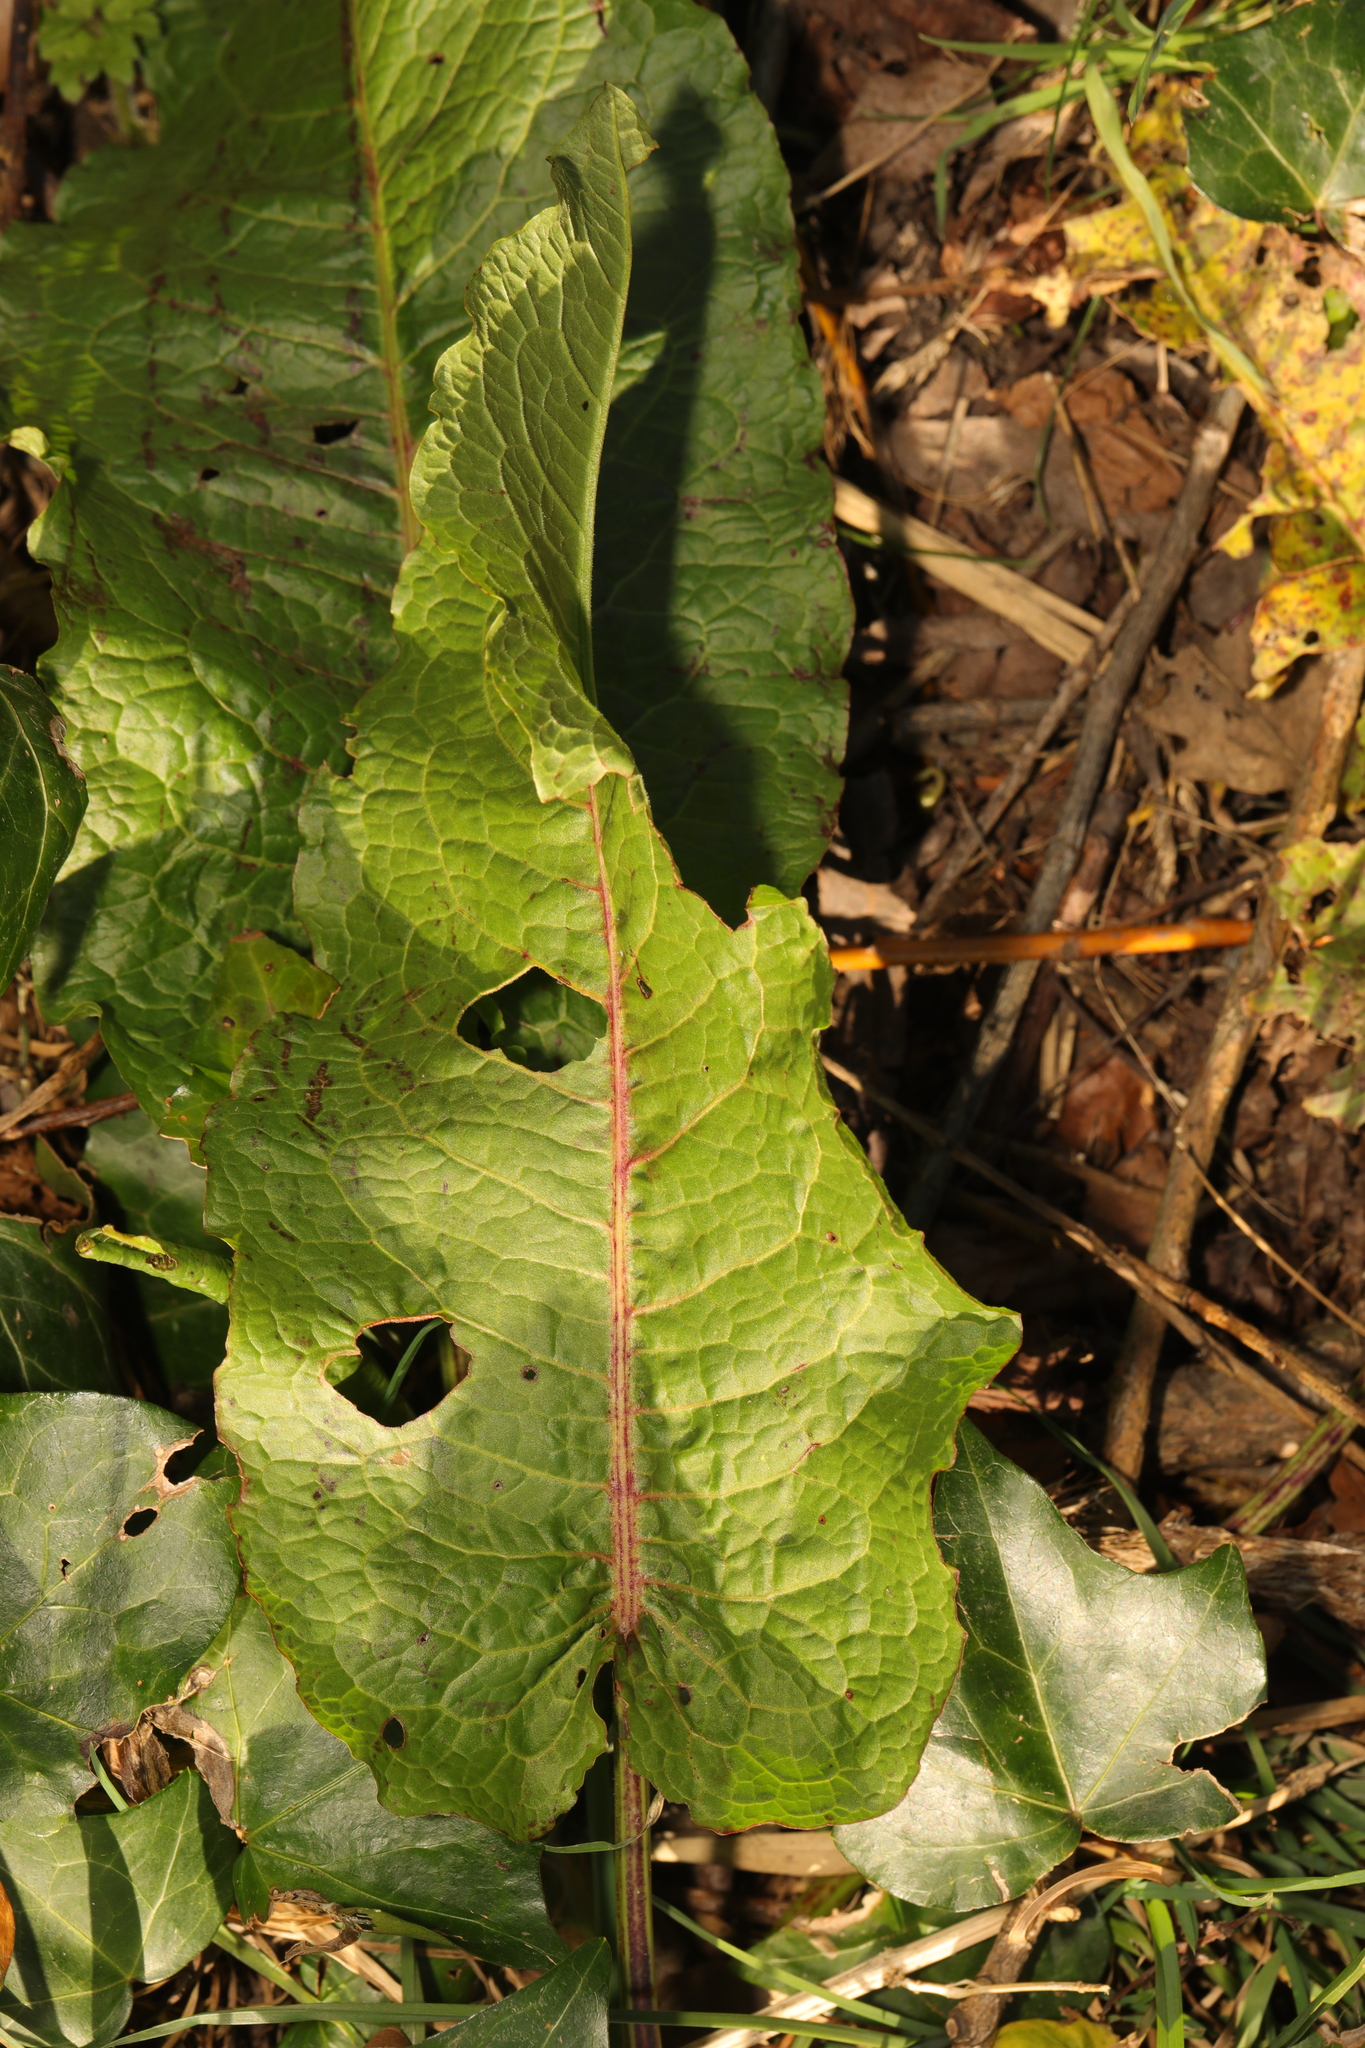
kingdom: Plantae
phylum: Tracheophyta
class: Magnoliopsida
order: Caryophyllales
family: Polygonaceae
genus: Rumex
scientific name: Rumex obtusifolius
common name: Bitter dock
